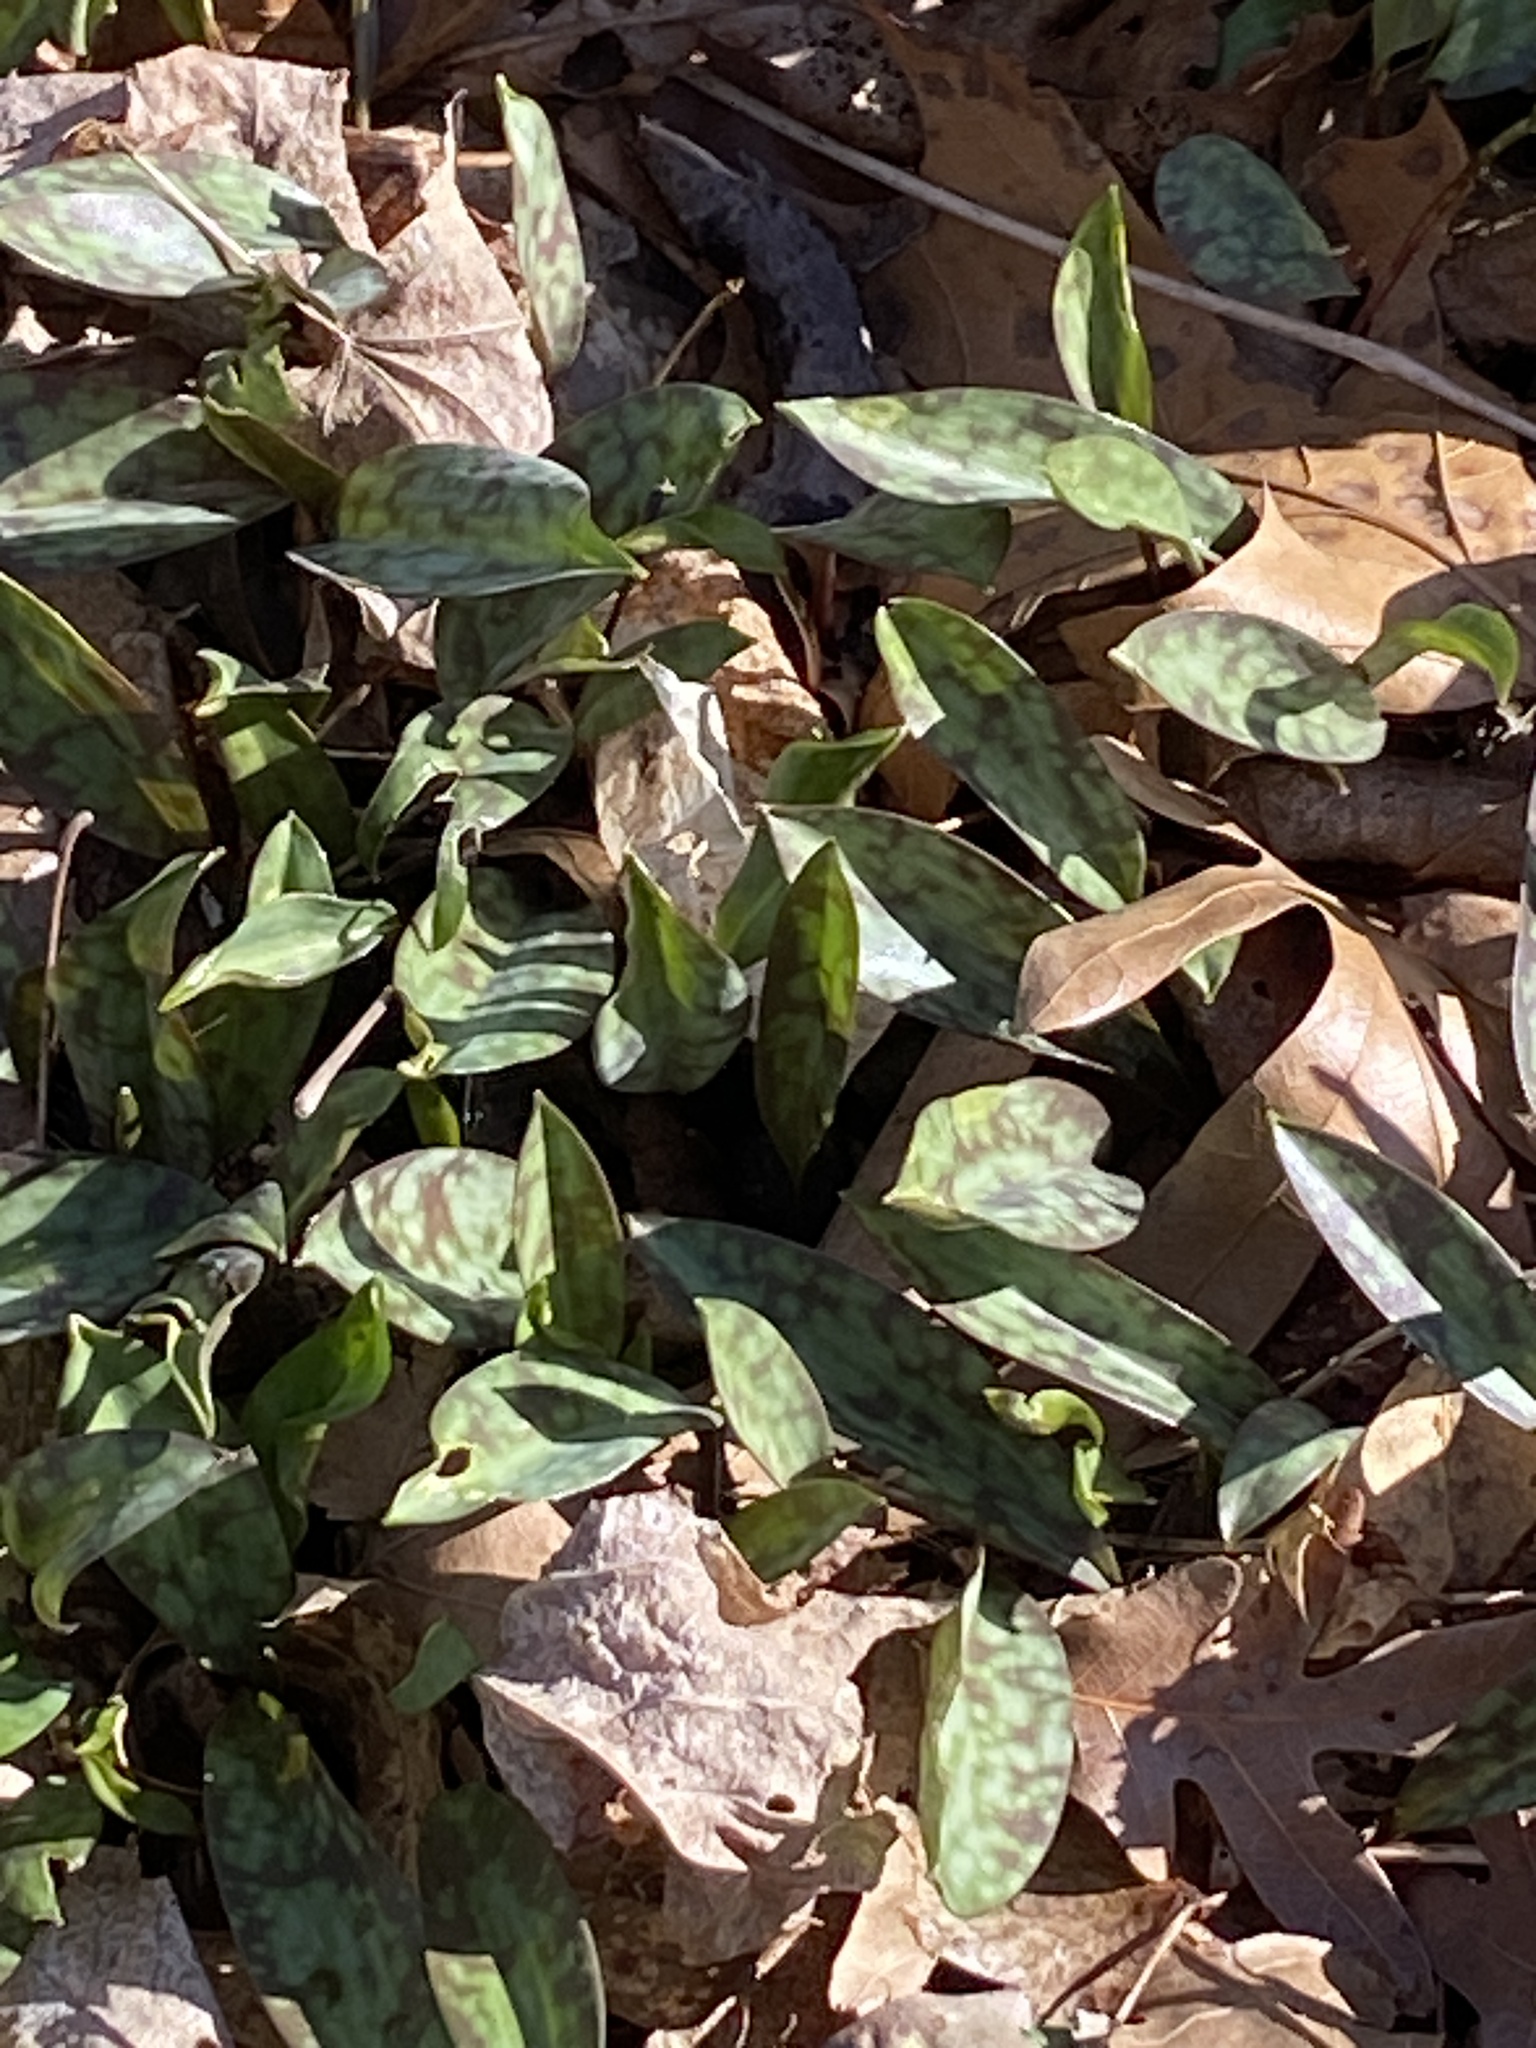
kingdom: Plantae
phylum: Tracheophyta
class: Liliopsida
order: Liliales
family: Liliaceae
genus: Erythronium
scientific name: Erythronium americanum
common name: Yellow adder's-tongue
